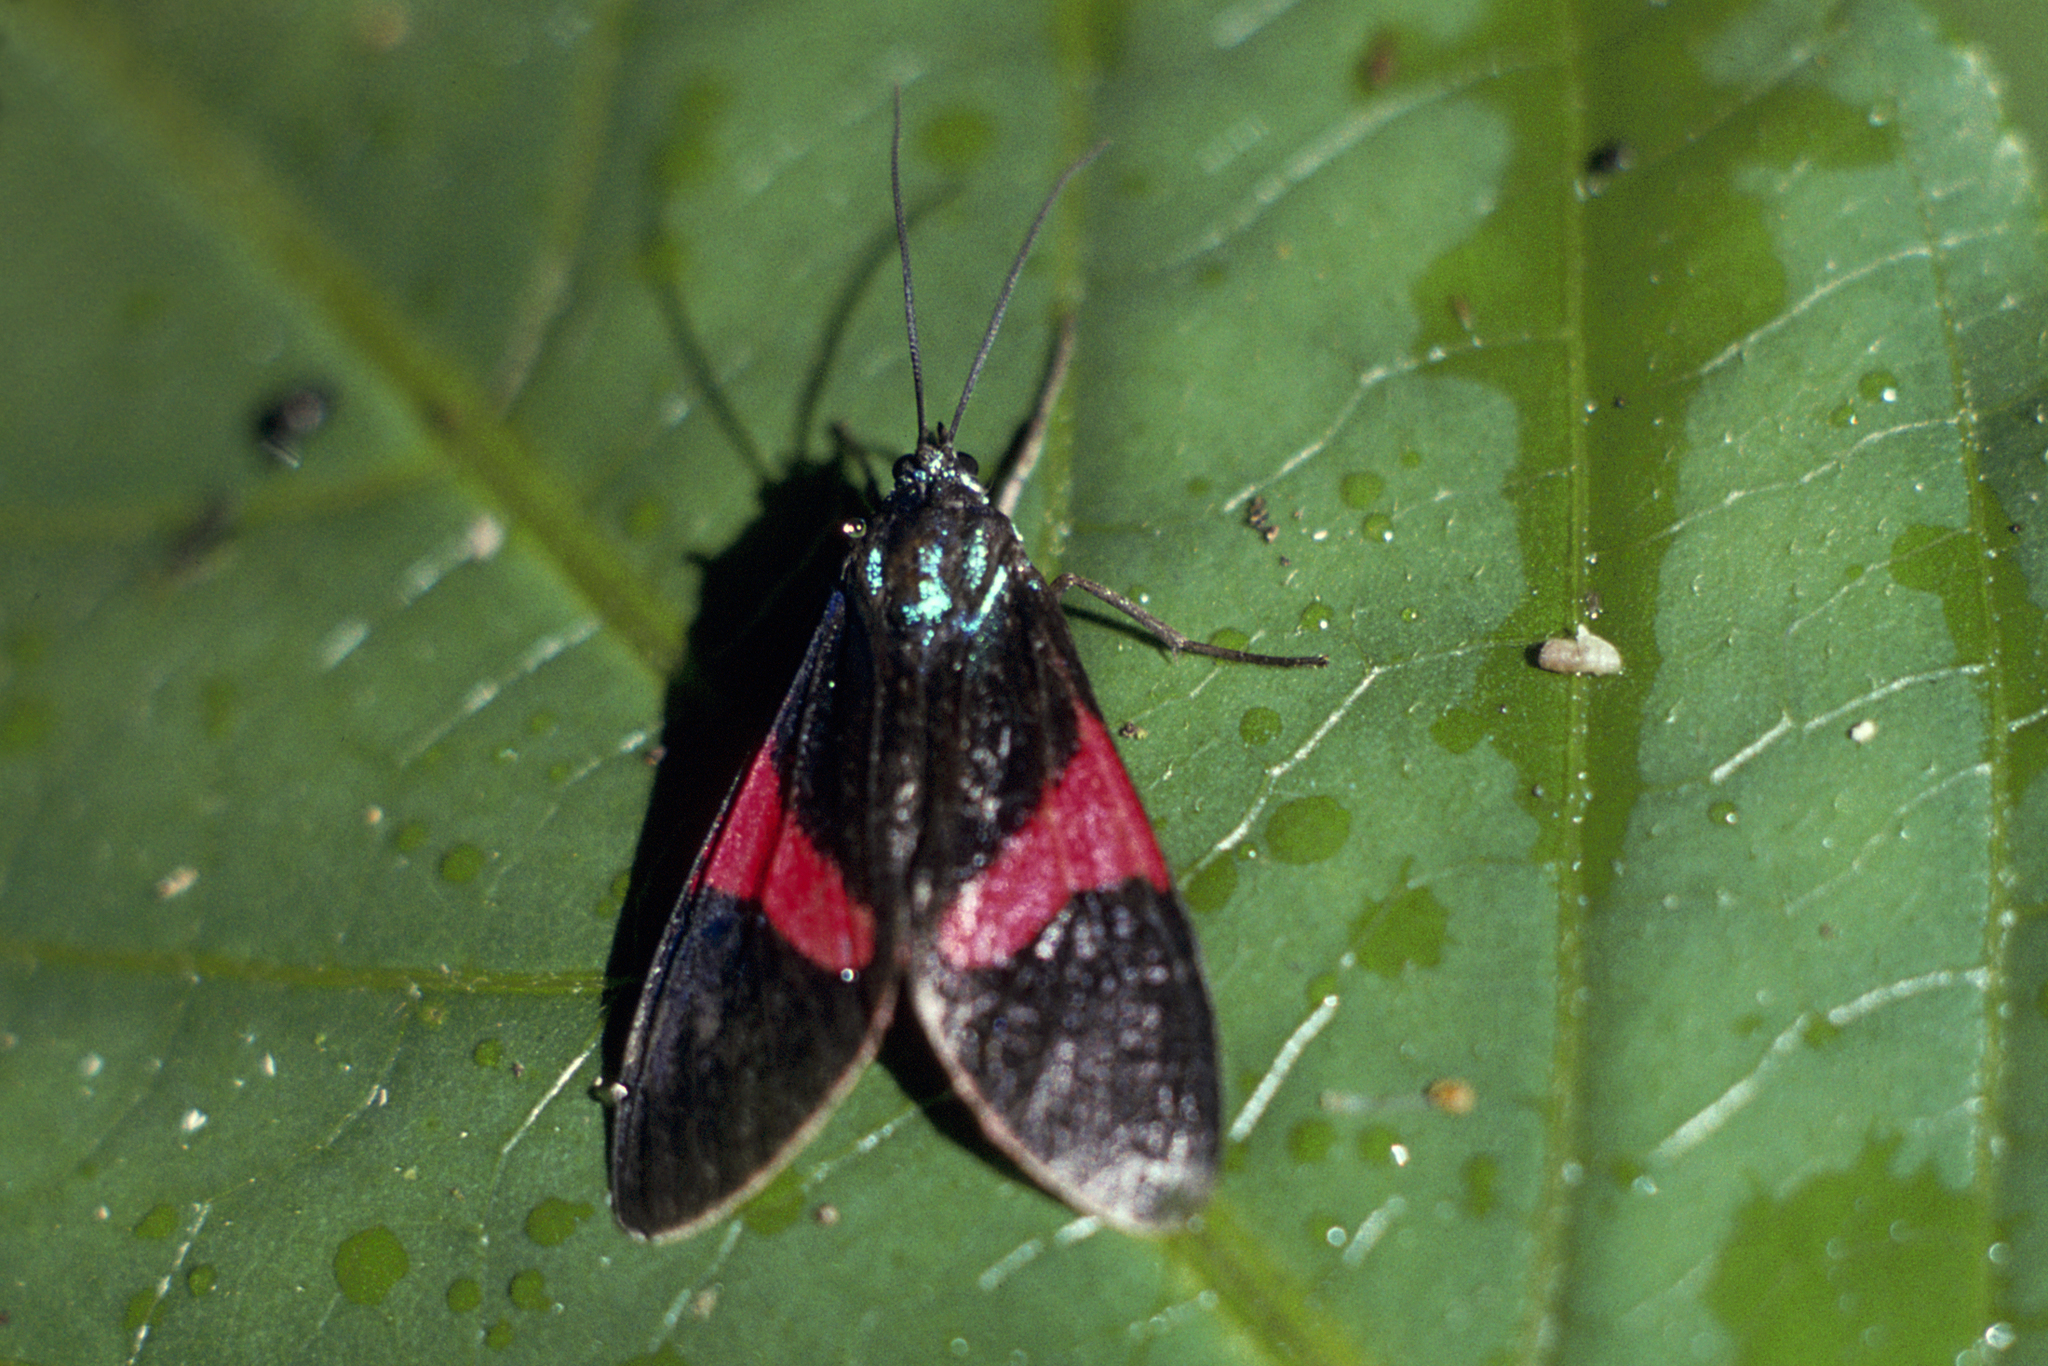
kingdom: Animalia
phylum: Arthropoda
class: Insecta
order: Lepidoptera
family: Erebidae
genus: Cyanopepla
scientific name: Cyanopepla scintillans
